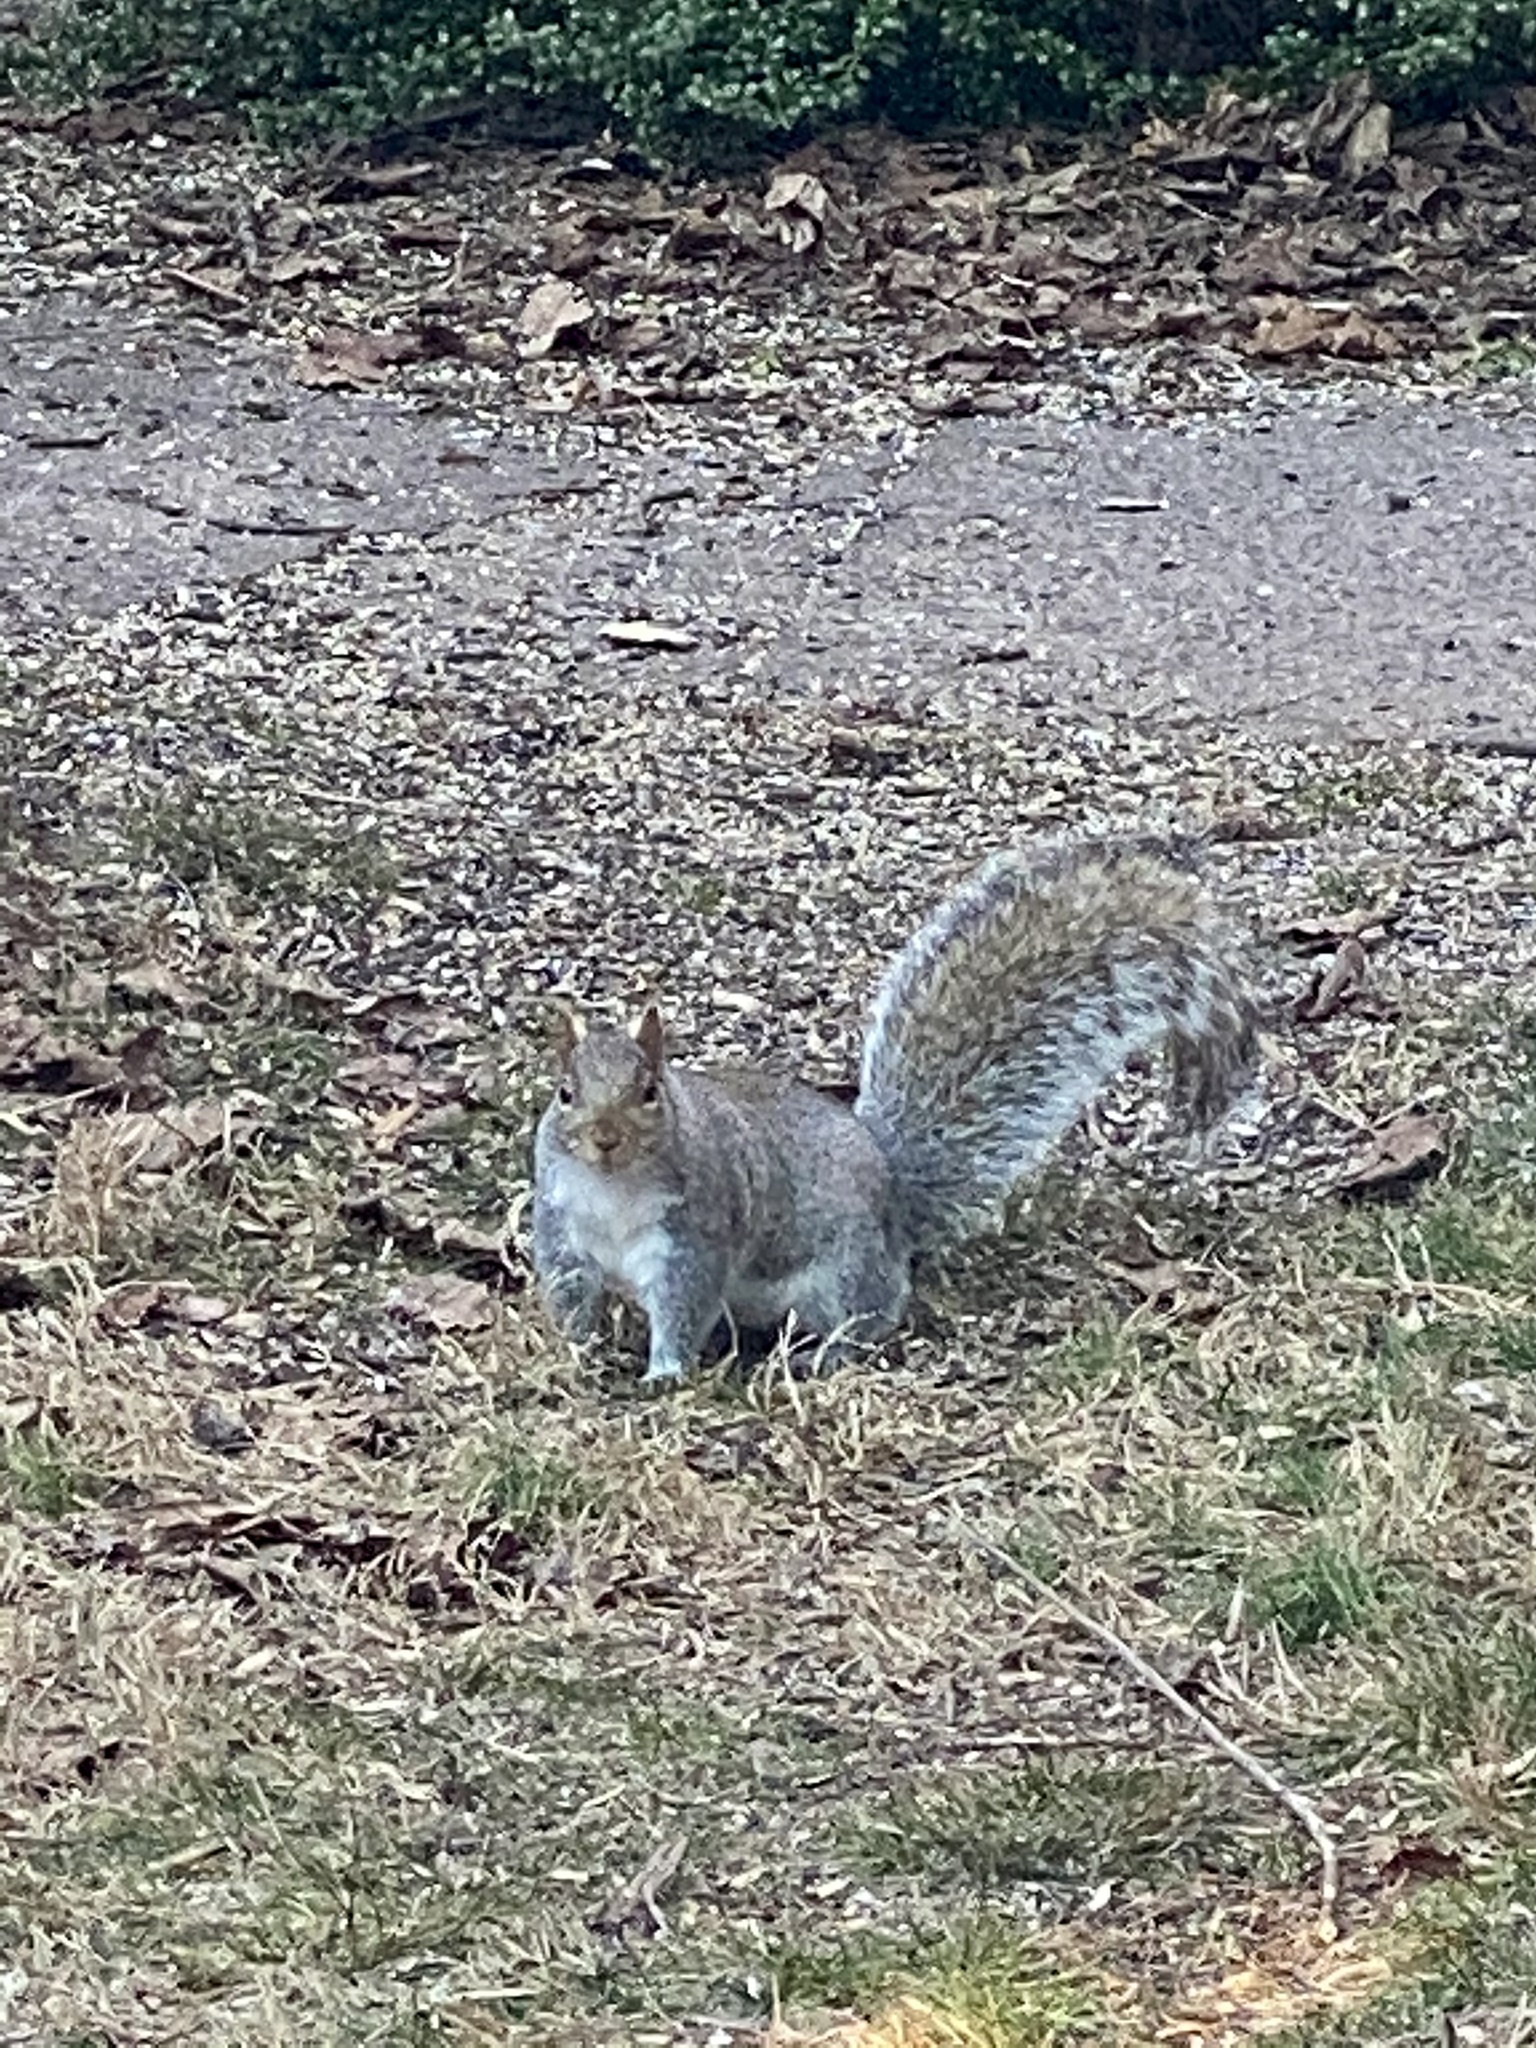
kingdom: Animalia
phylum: Chordata
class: Mammalia
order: Rodentia
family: Sciuridae
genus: Sciurus
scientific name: Sciurus carolinensis
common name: Eastern gray squirrel
